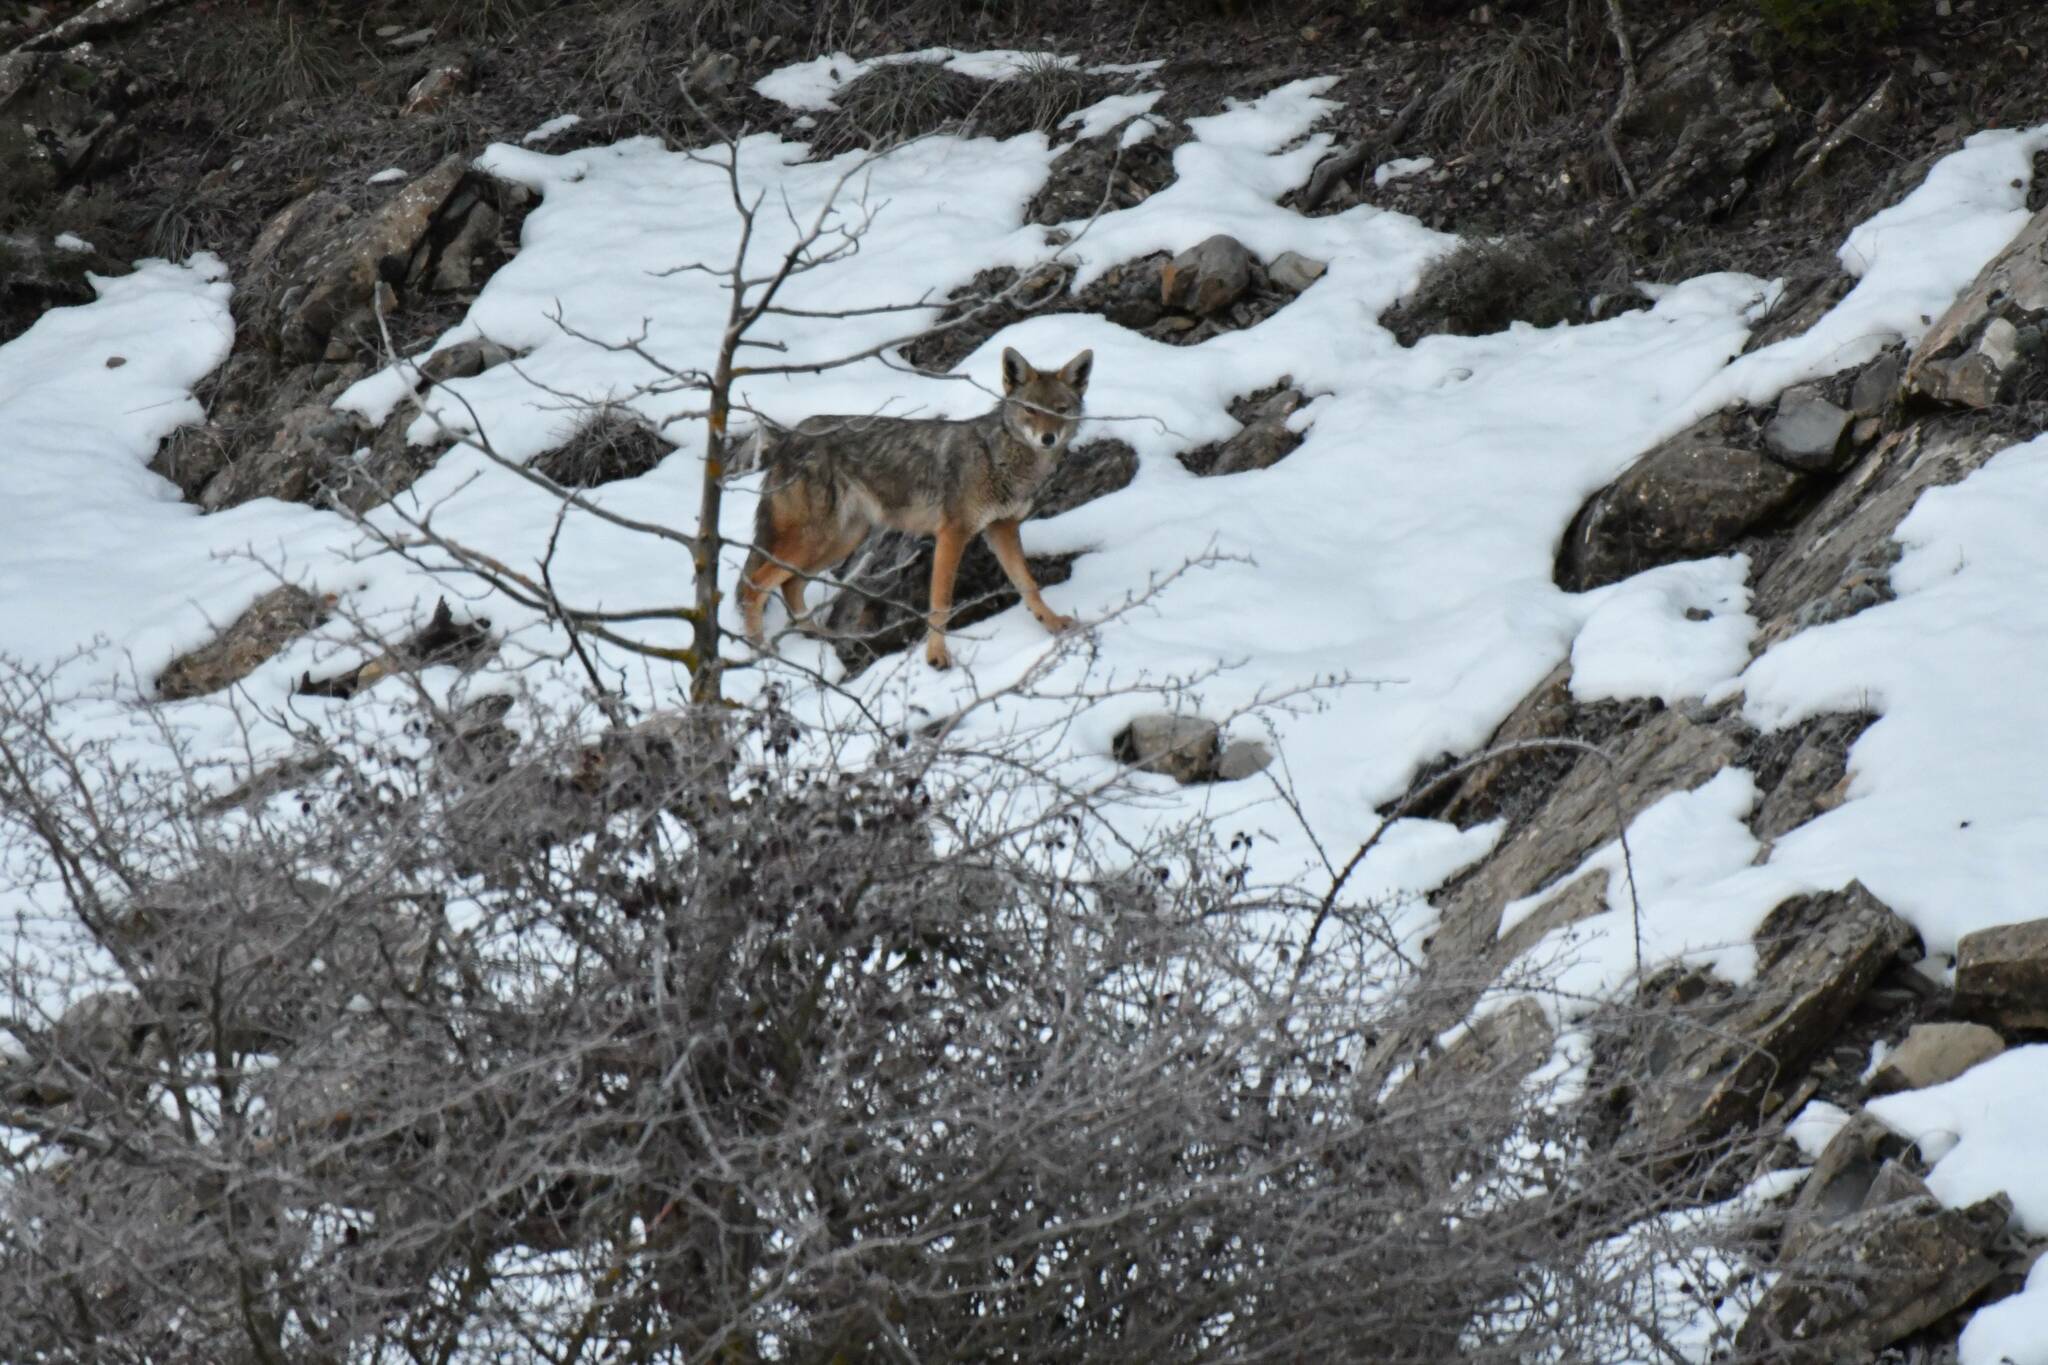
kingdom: Animalia
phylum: Chordata
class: Mammalia
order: Carnivora
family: Canidae
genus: Canis
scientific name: Canis lupaster
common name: African golden wolf
